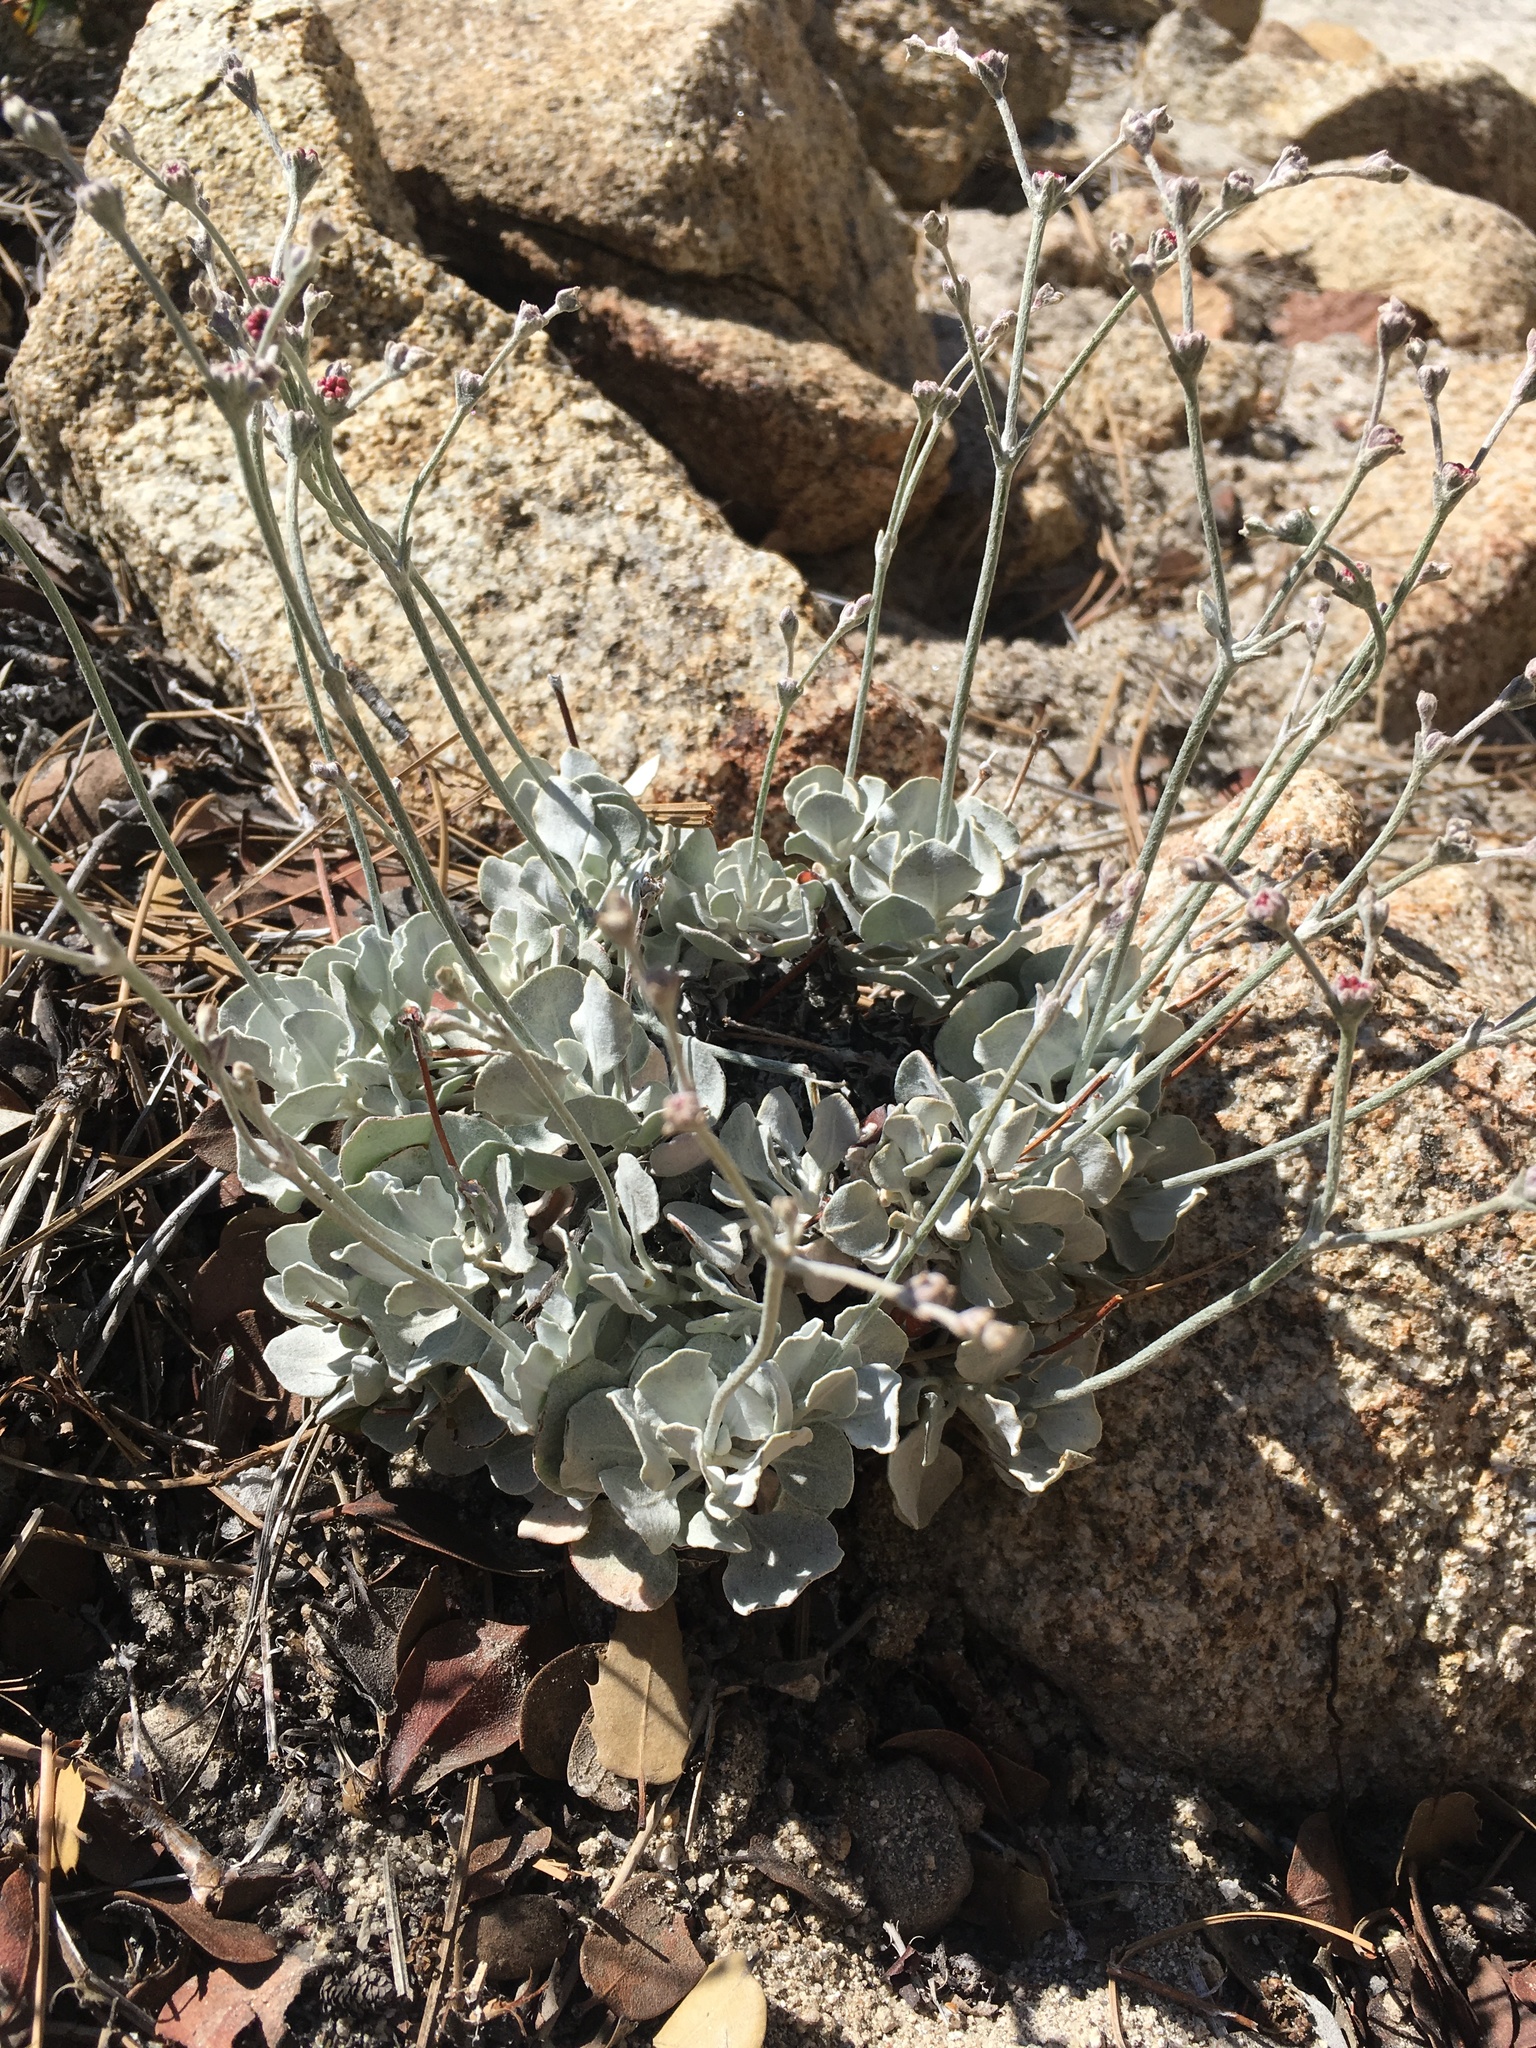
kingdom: Plantae
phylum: Tracheophyta
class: Magnoliopsida
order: Caryophyllales
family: Polygonaceae
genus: Eriogonum
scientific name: Eriogonum saxatile
